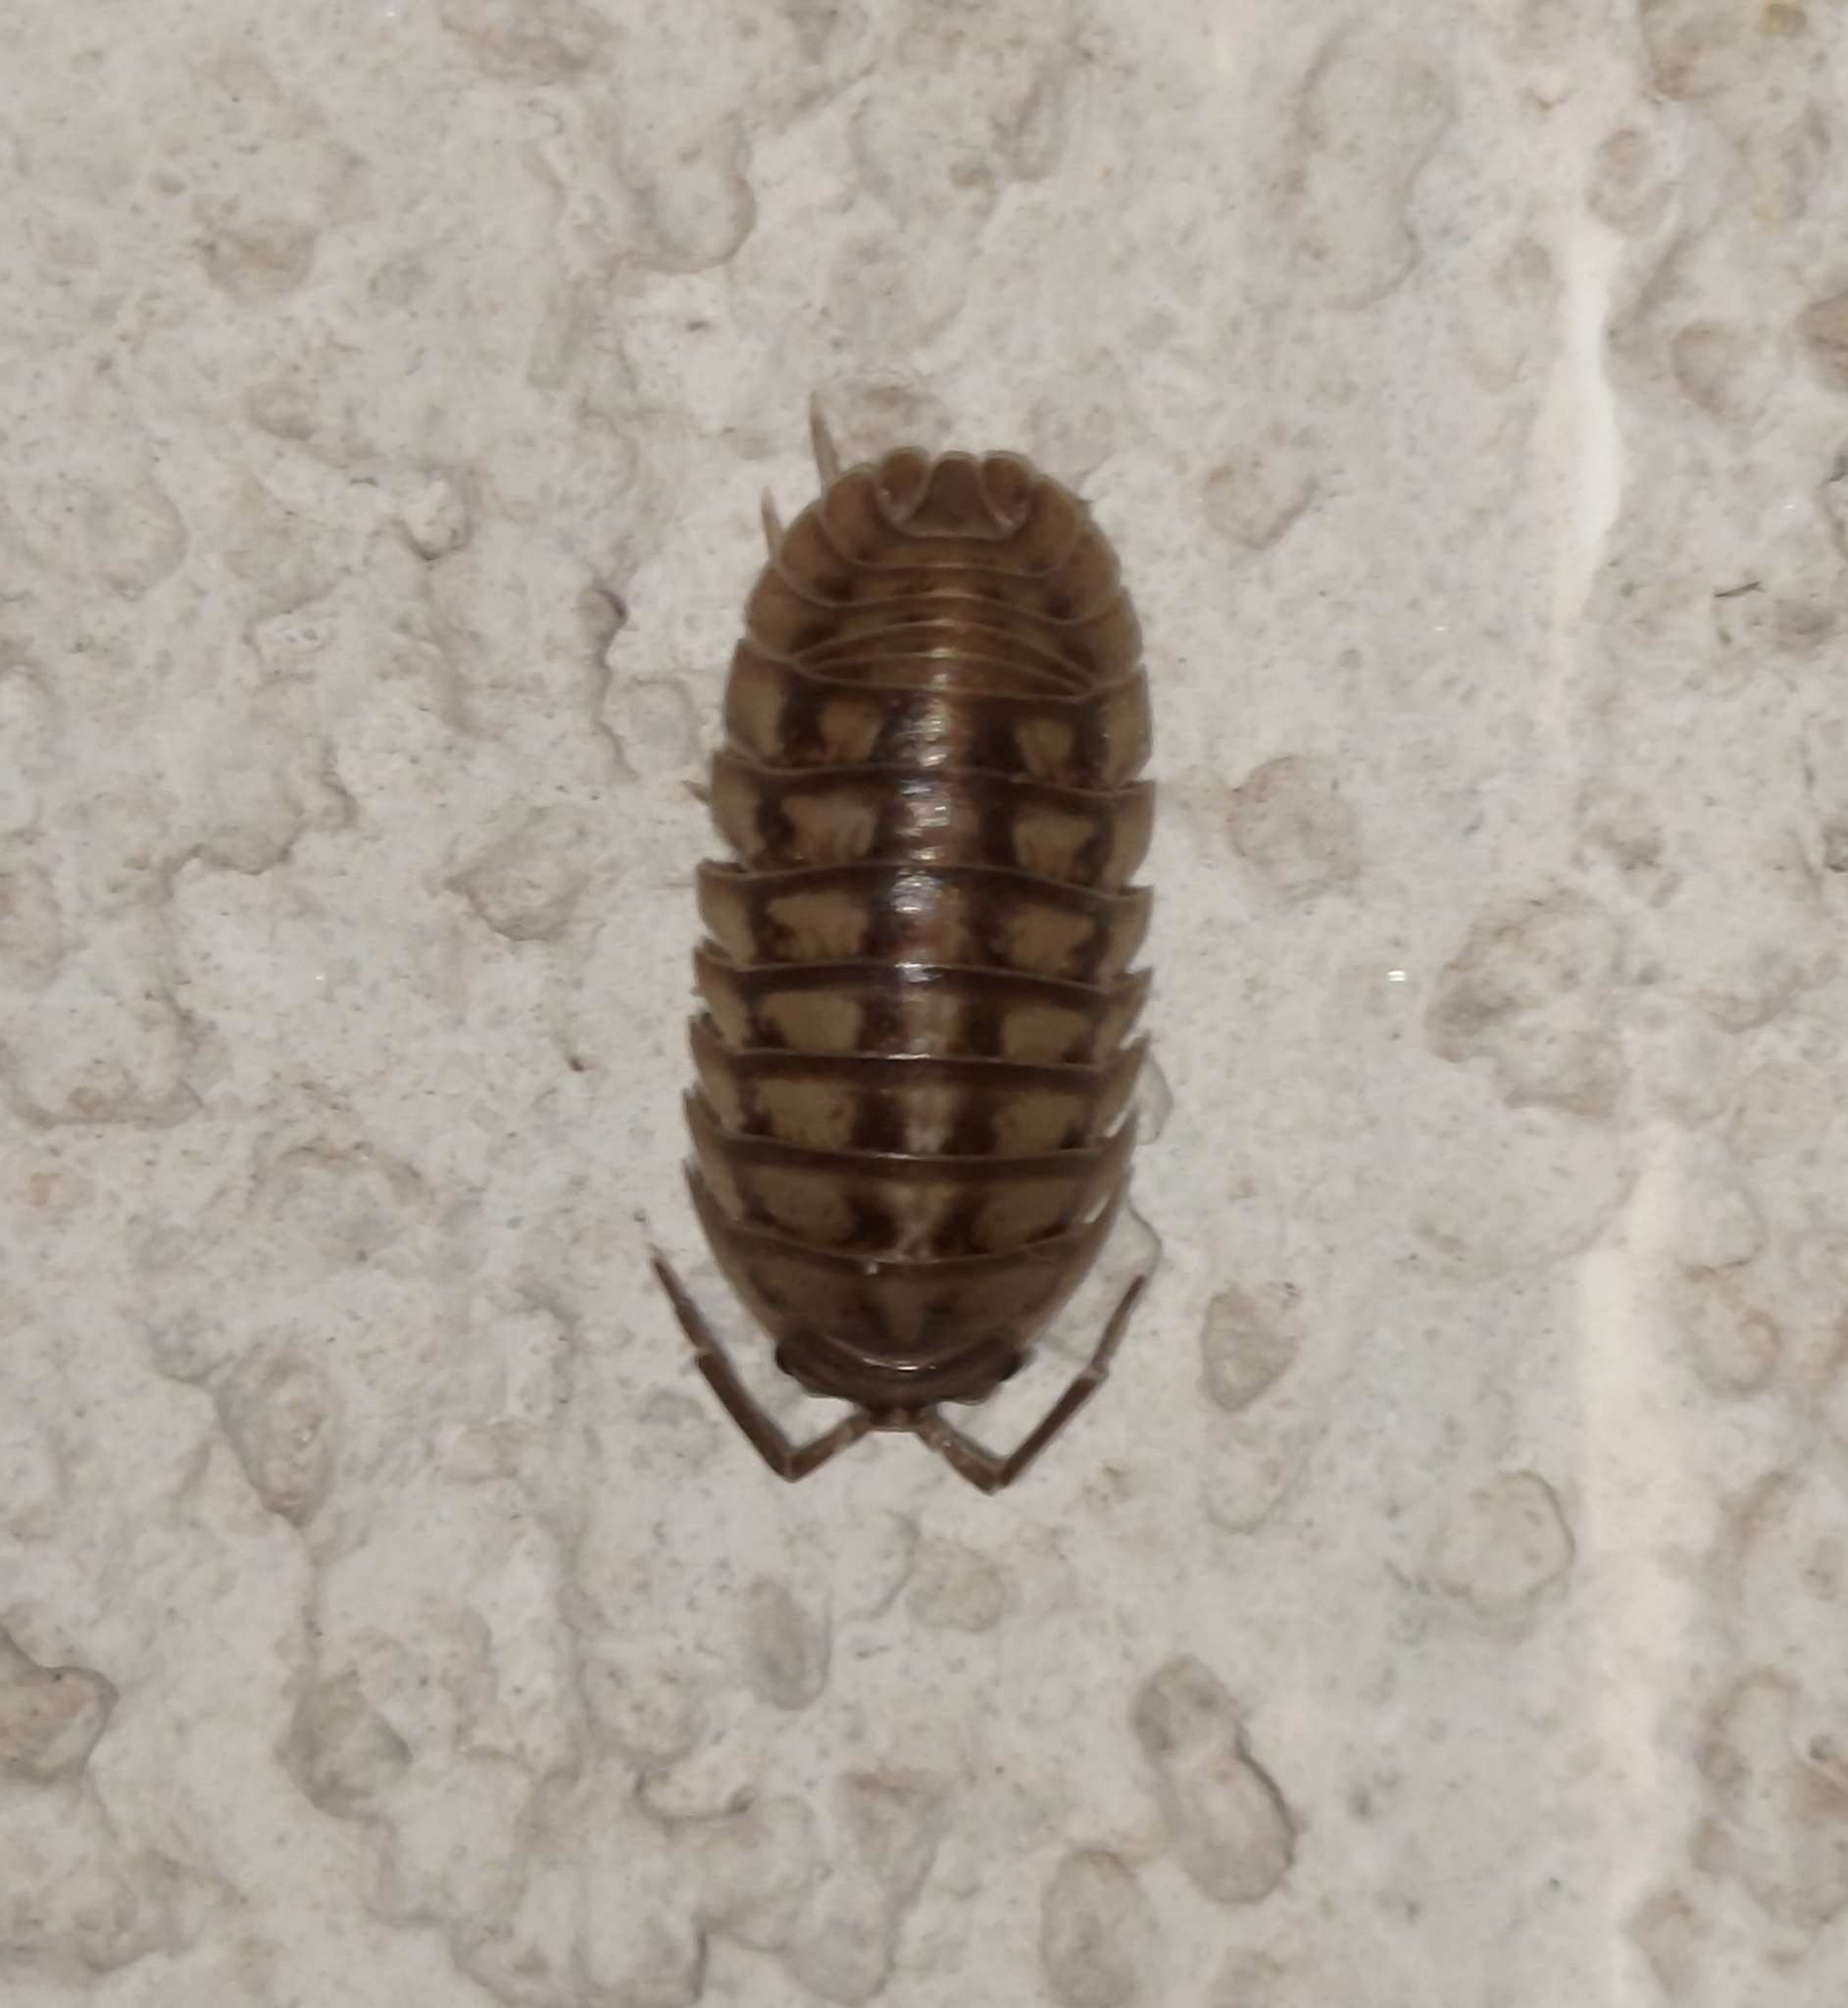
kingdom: Animalia
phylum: Arthropoda
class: Malacostraca
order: Isopoda
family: Armadillidiidae
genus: Armadillidium
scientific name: Armadillidium nasatum
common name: Isopod
